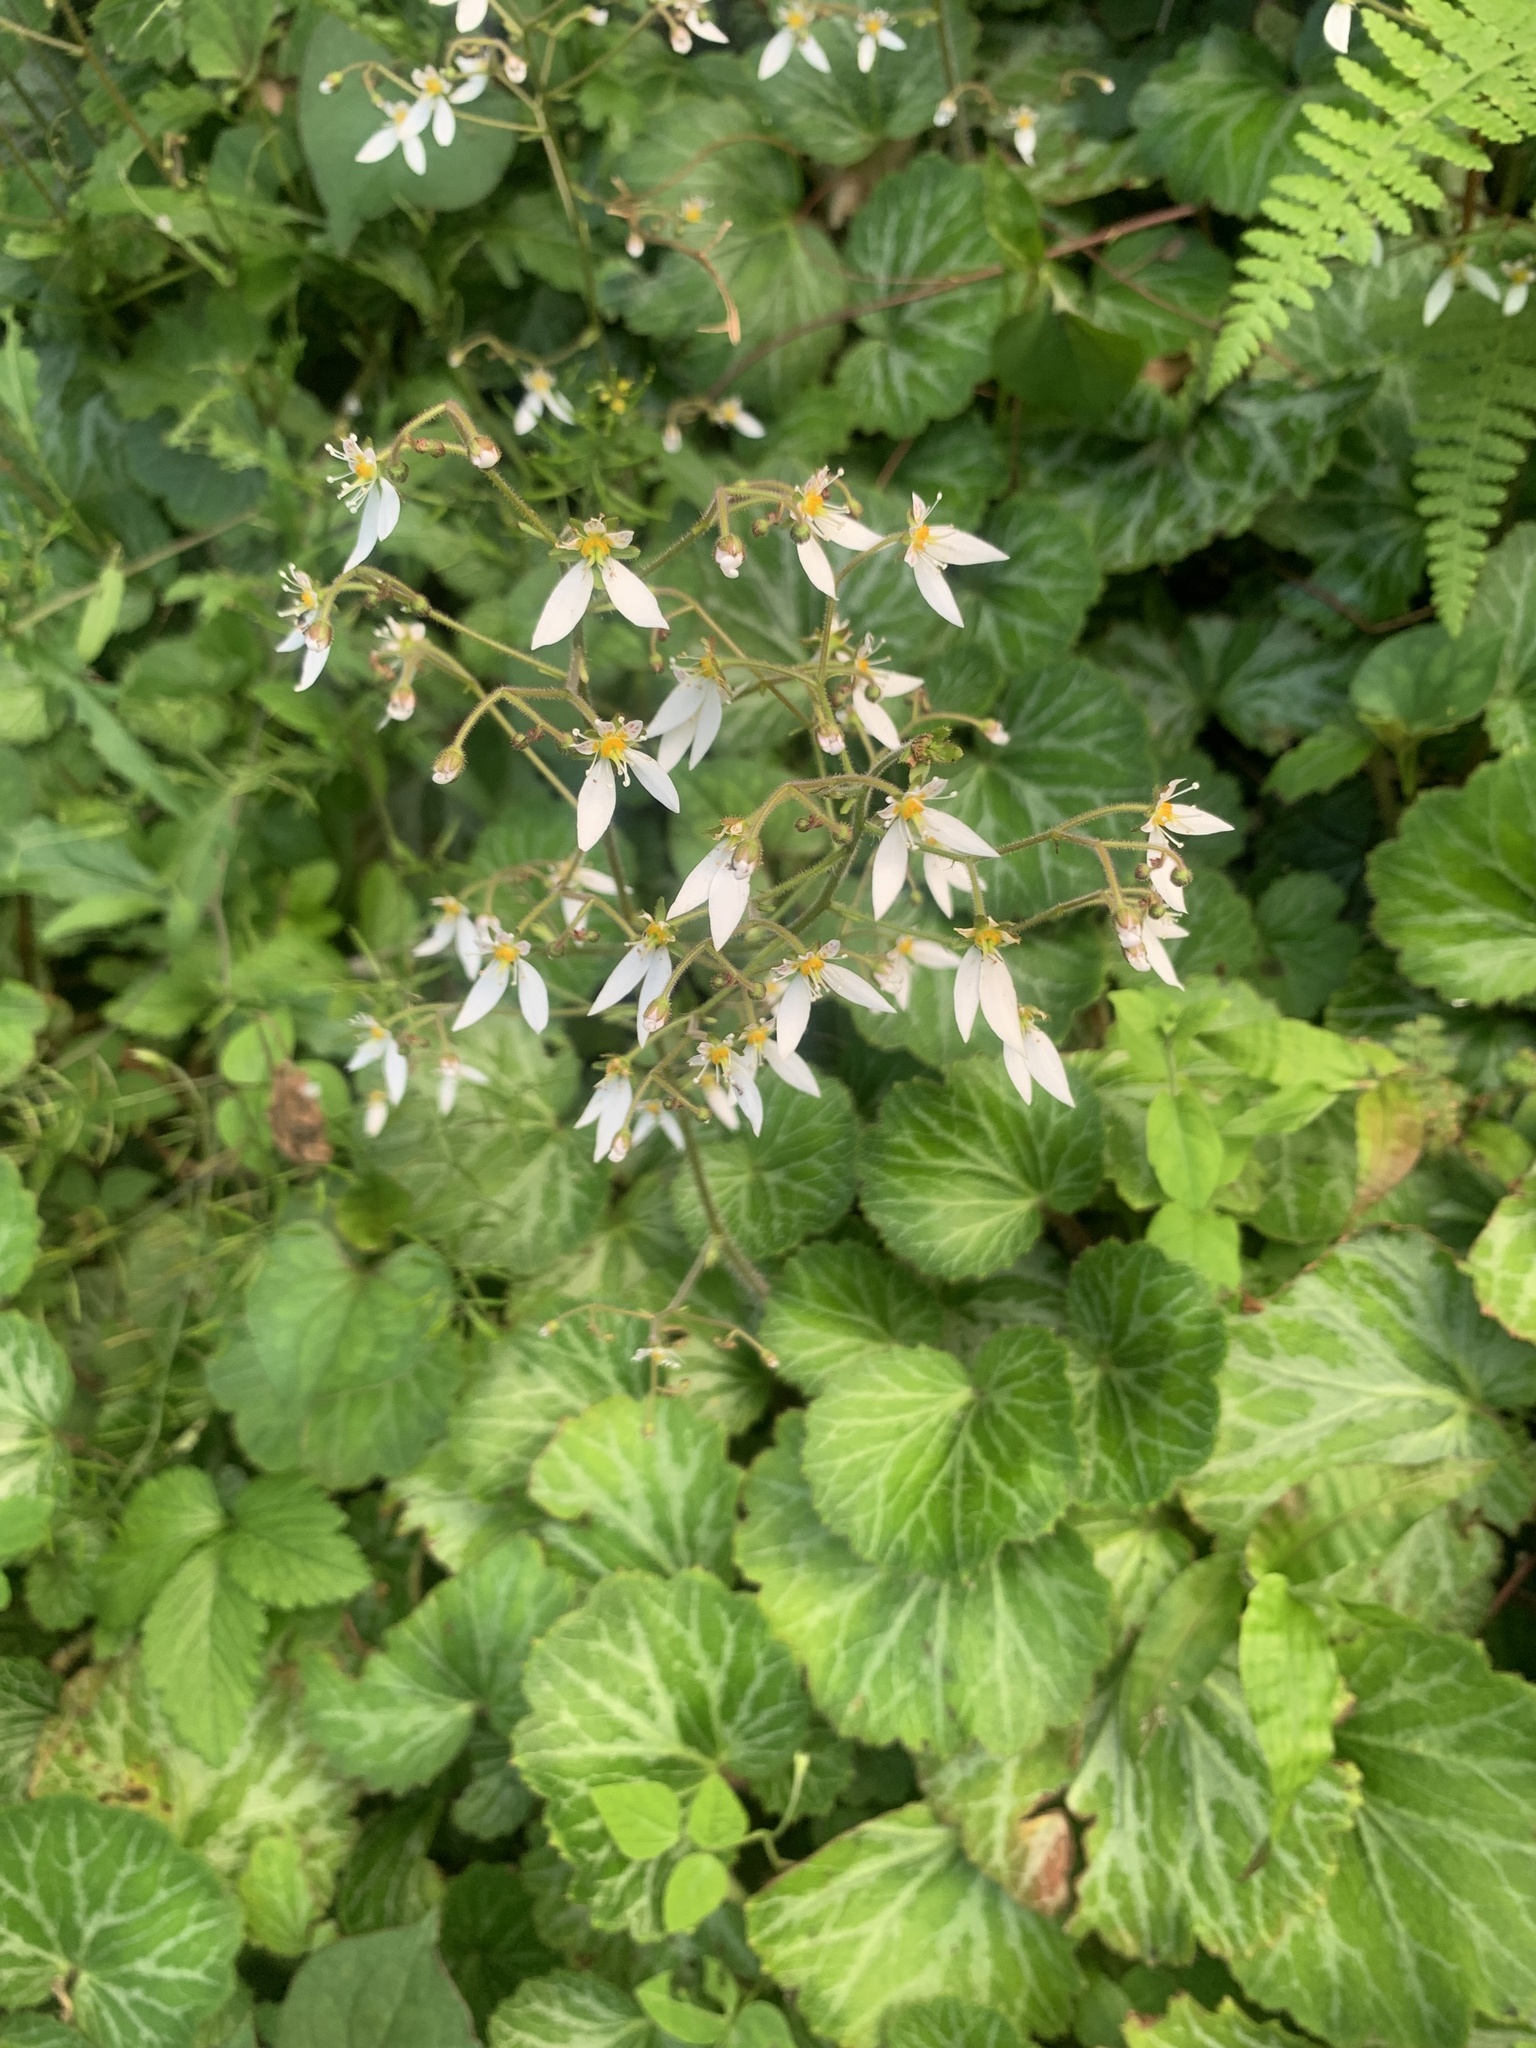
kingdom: Plantae
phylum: Tracheophyta
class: Magnoliopsida
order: Saxifragales
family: Saxifragaceae
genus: Saxifraga
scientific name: Saxifraga stolonifera
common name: Creeping saxifrage
